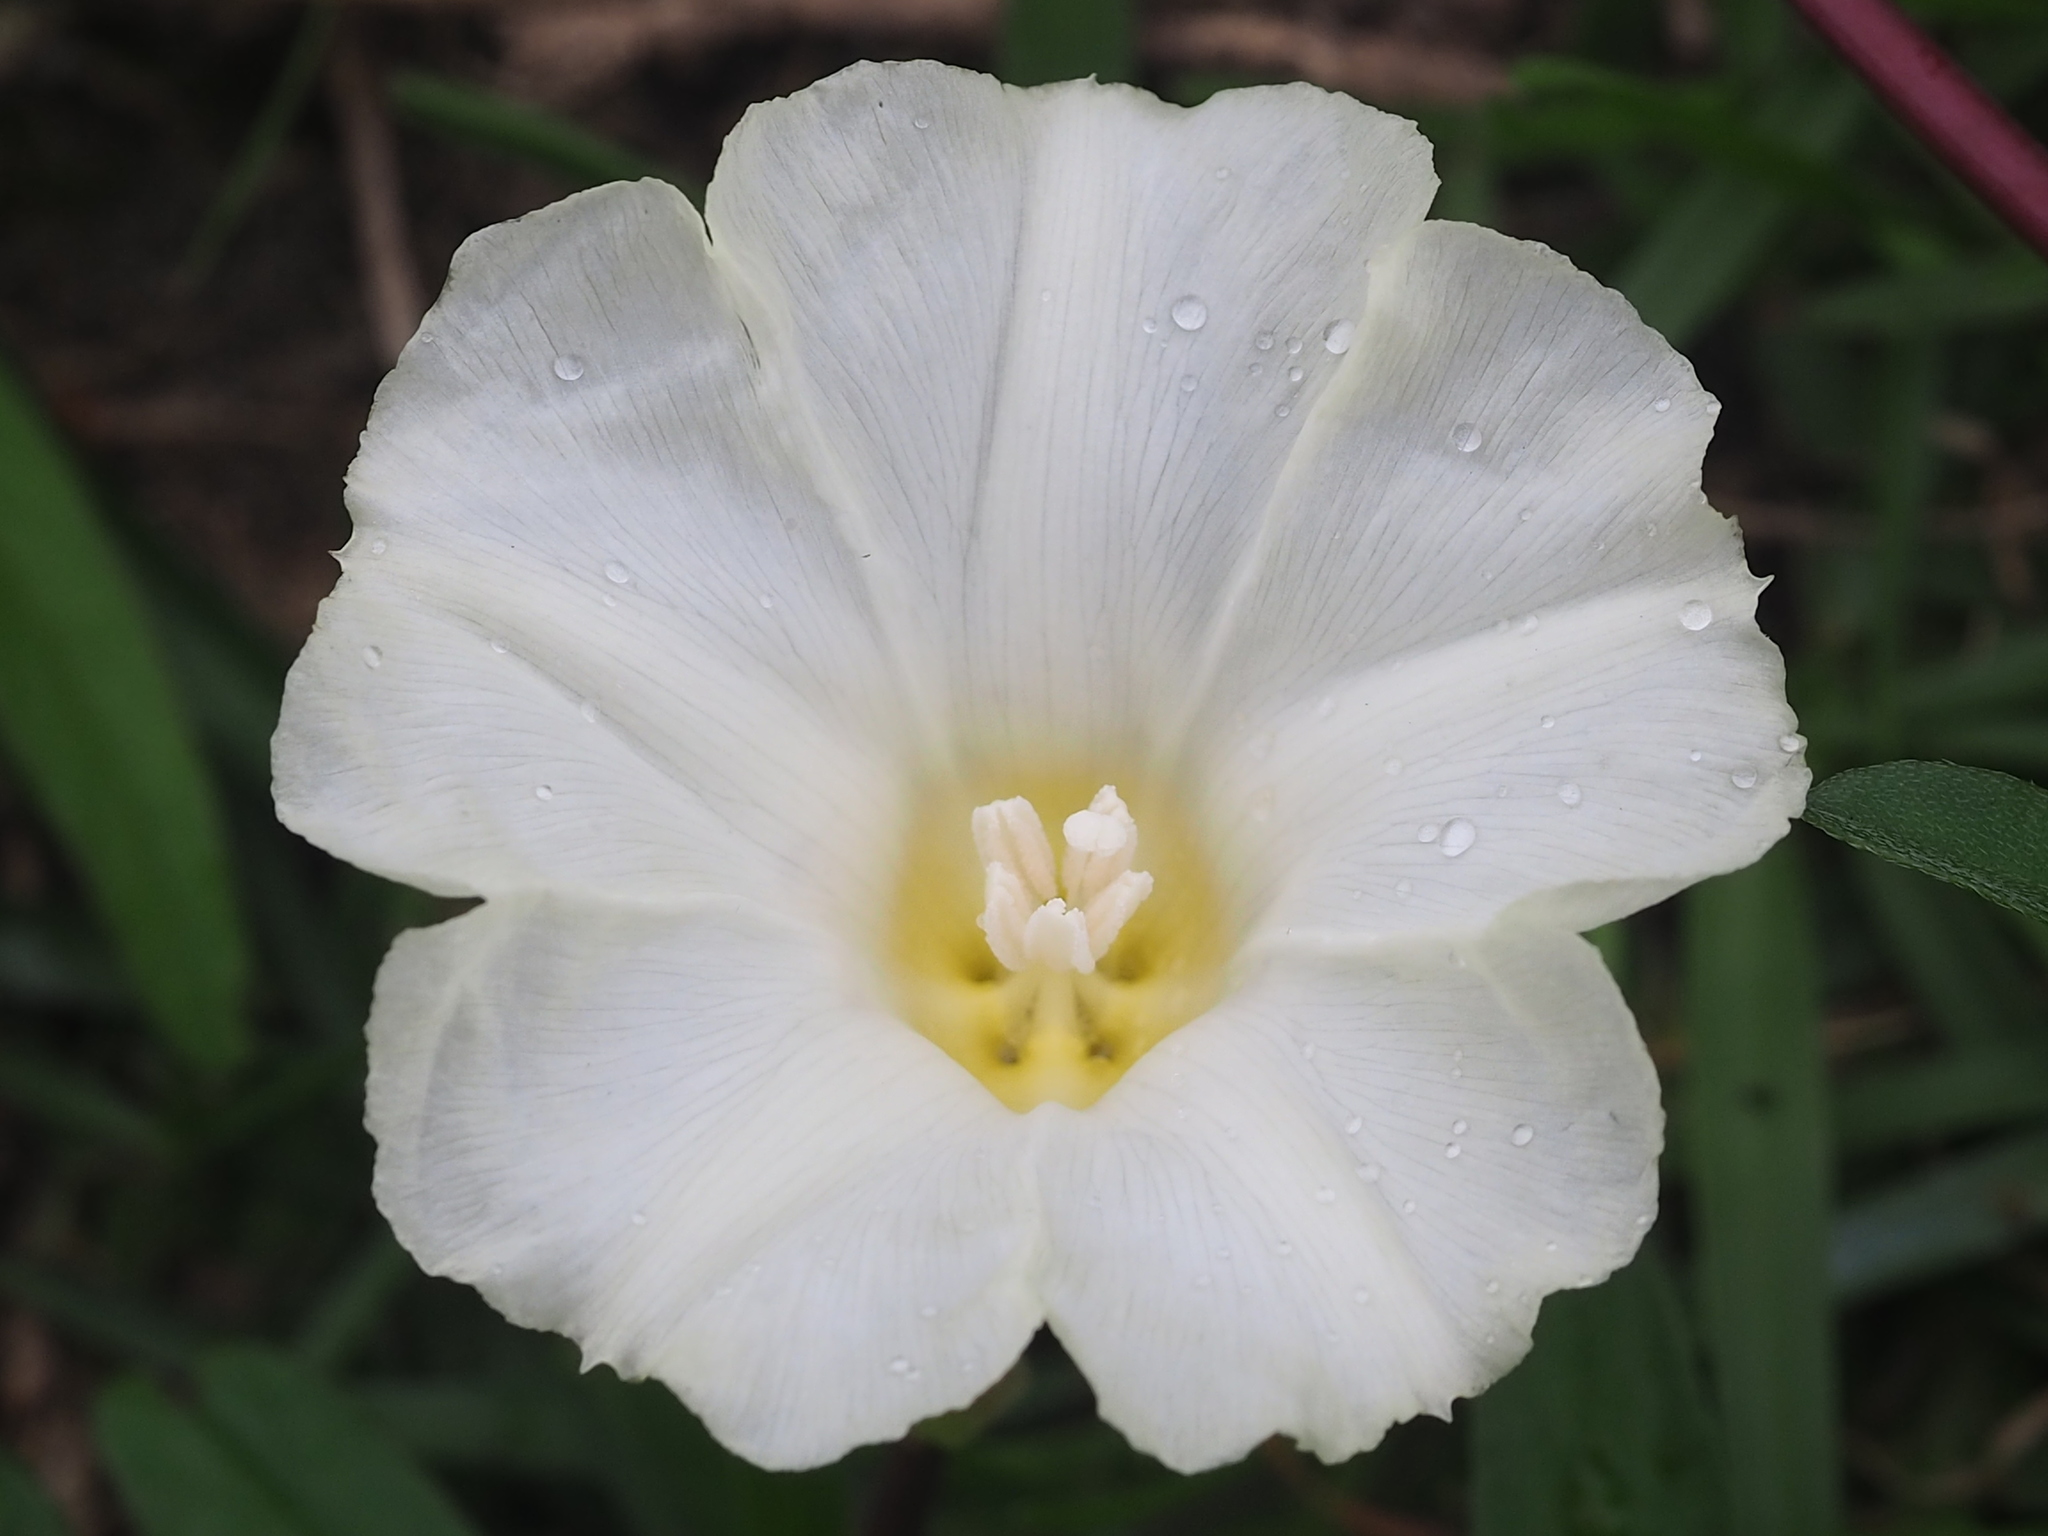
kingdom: Plantae
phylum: Tracheophyta
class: Magnoliopsida
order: Solanales
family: Convolvulaceae
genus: Operculina
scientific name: Operculina turpethum
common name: Transparent wood-rose
